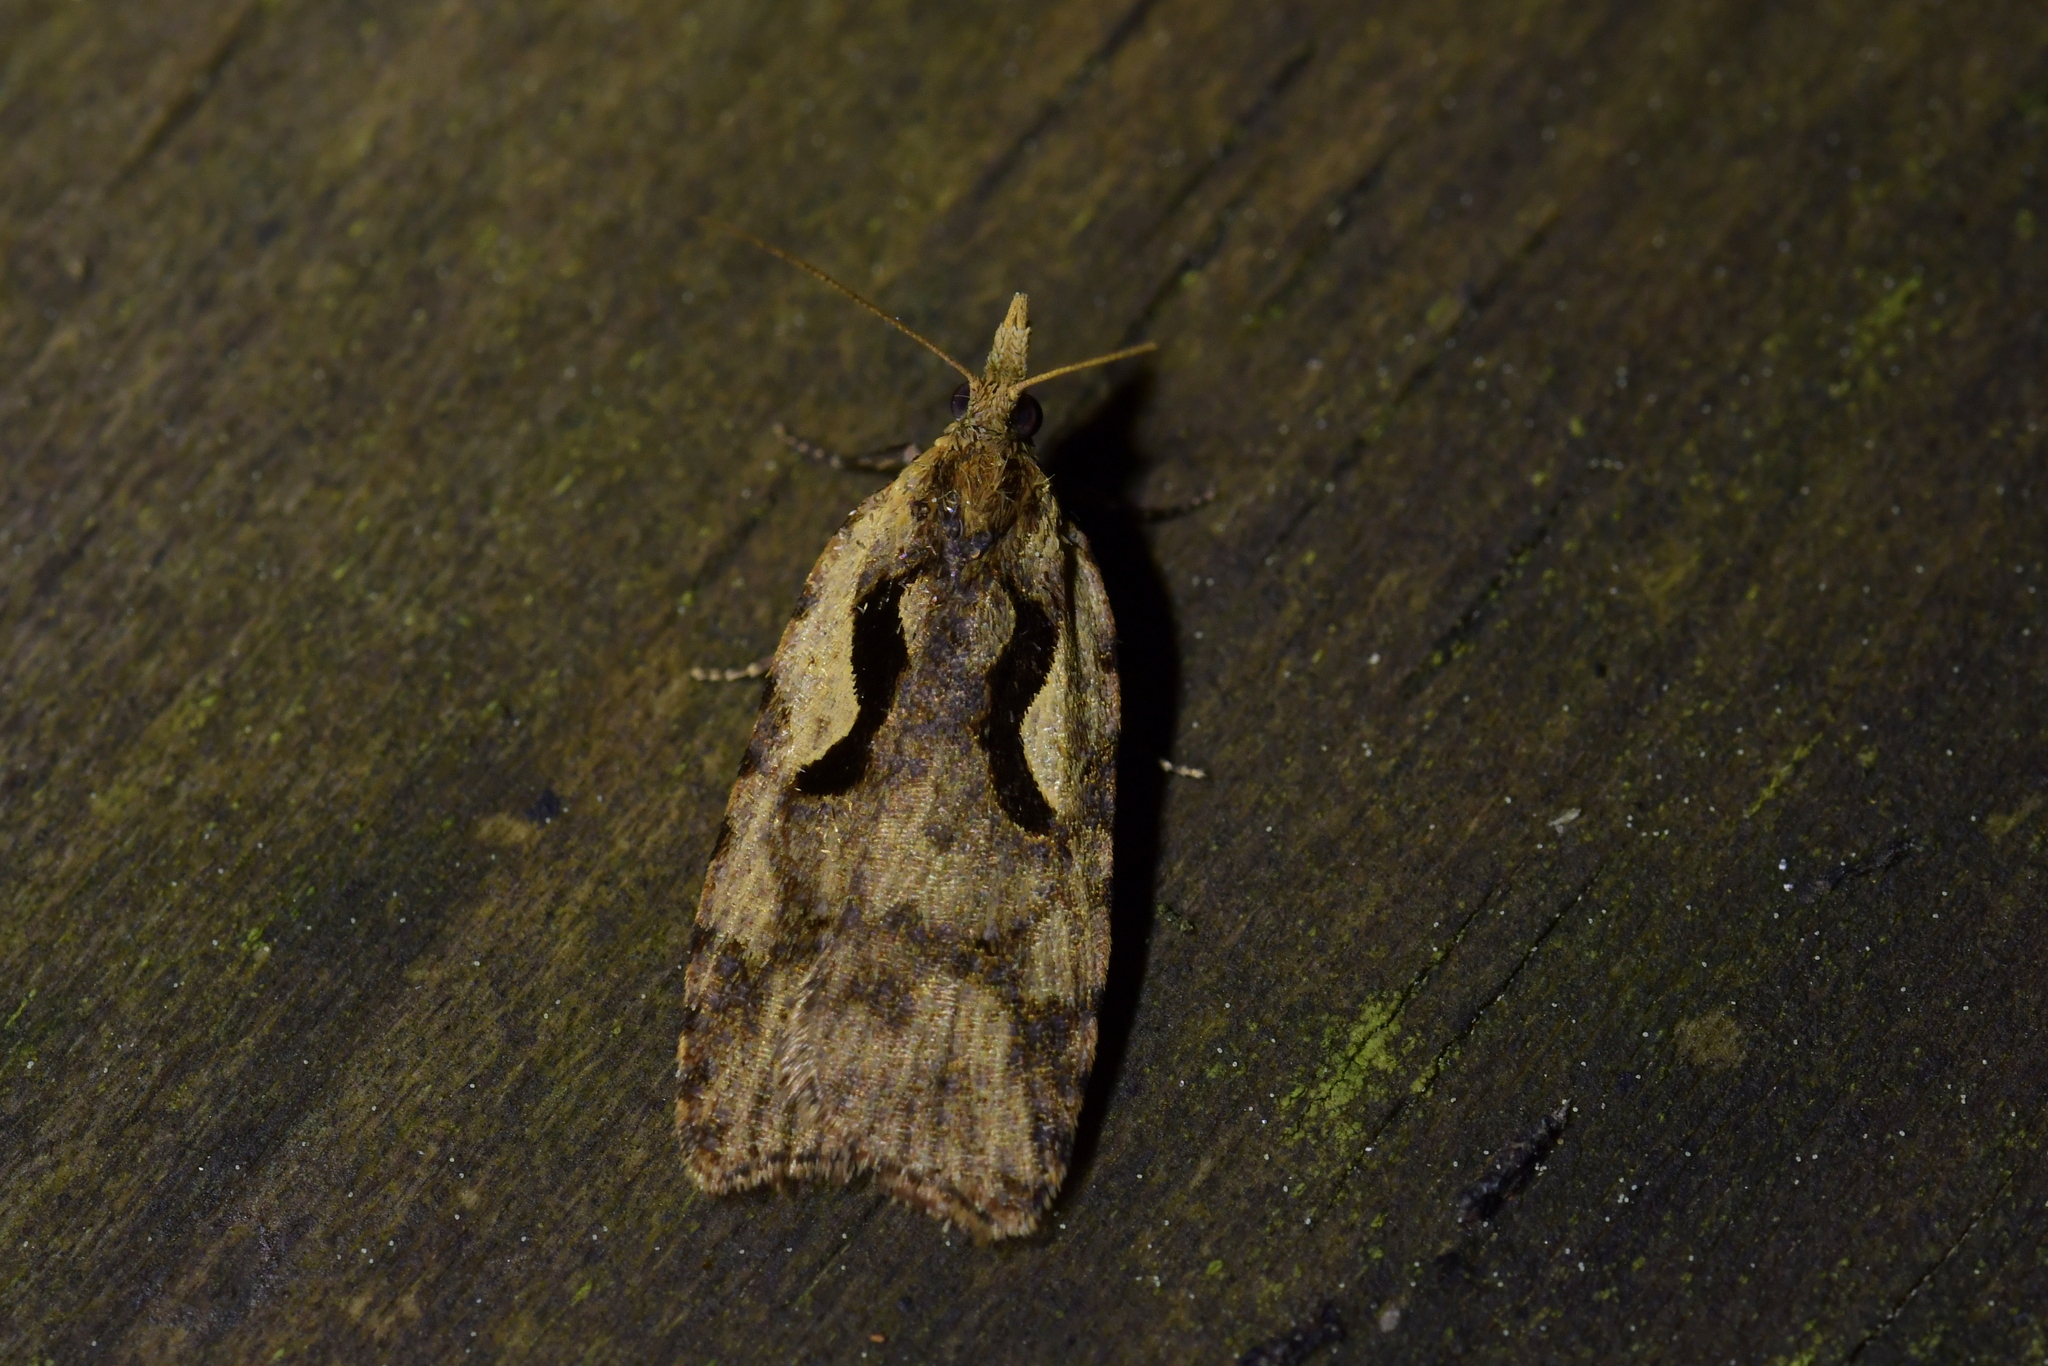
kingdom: Animalia
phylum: Arthropoda
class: Insecta
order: Lepidoptera
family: Tortricidae
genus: Cnephasia
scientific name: Cnephasia jactatana
